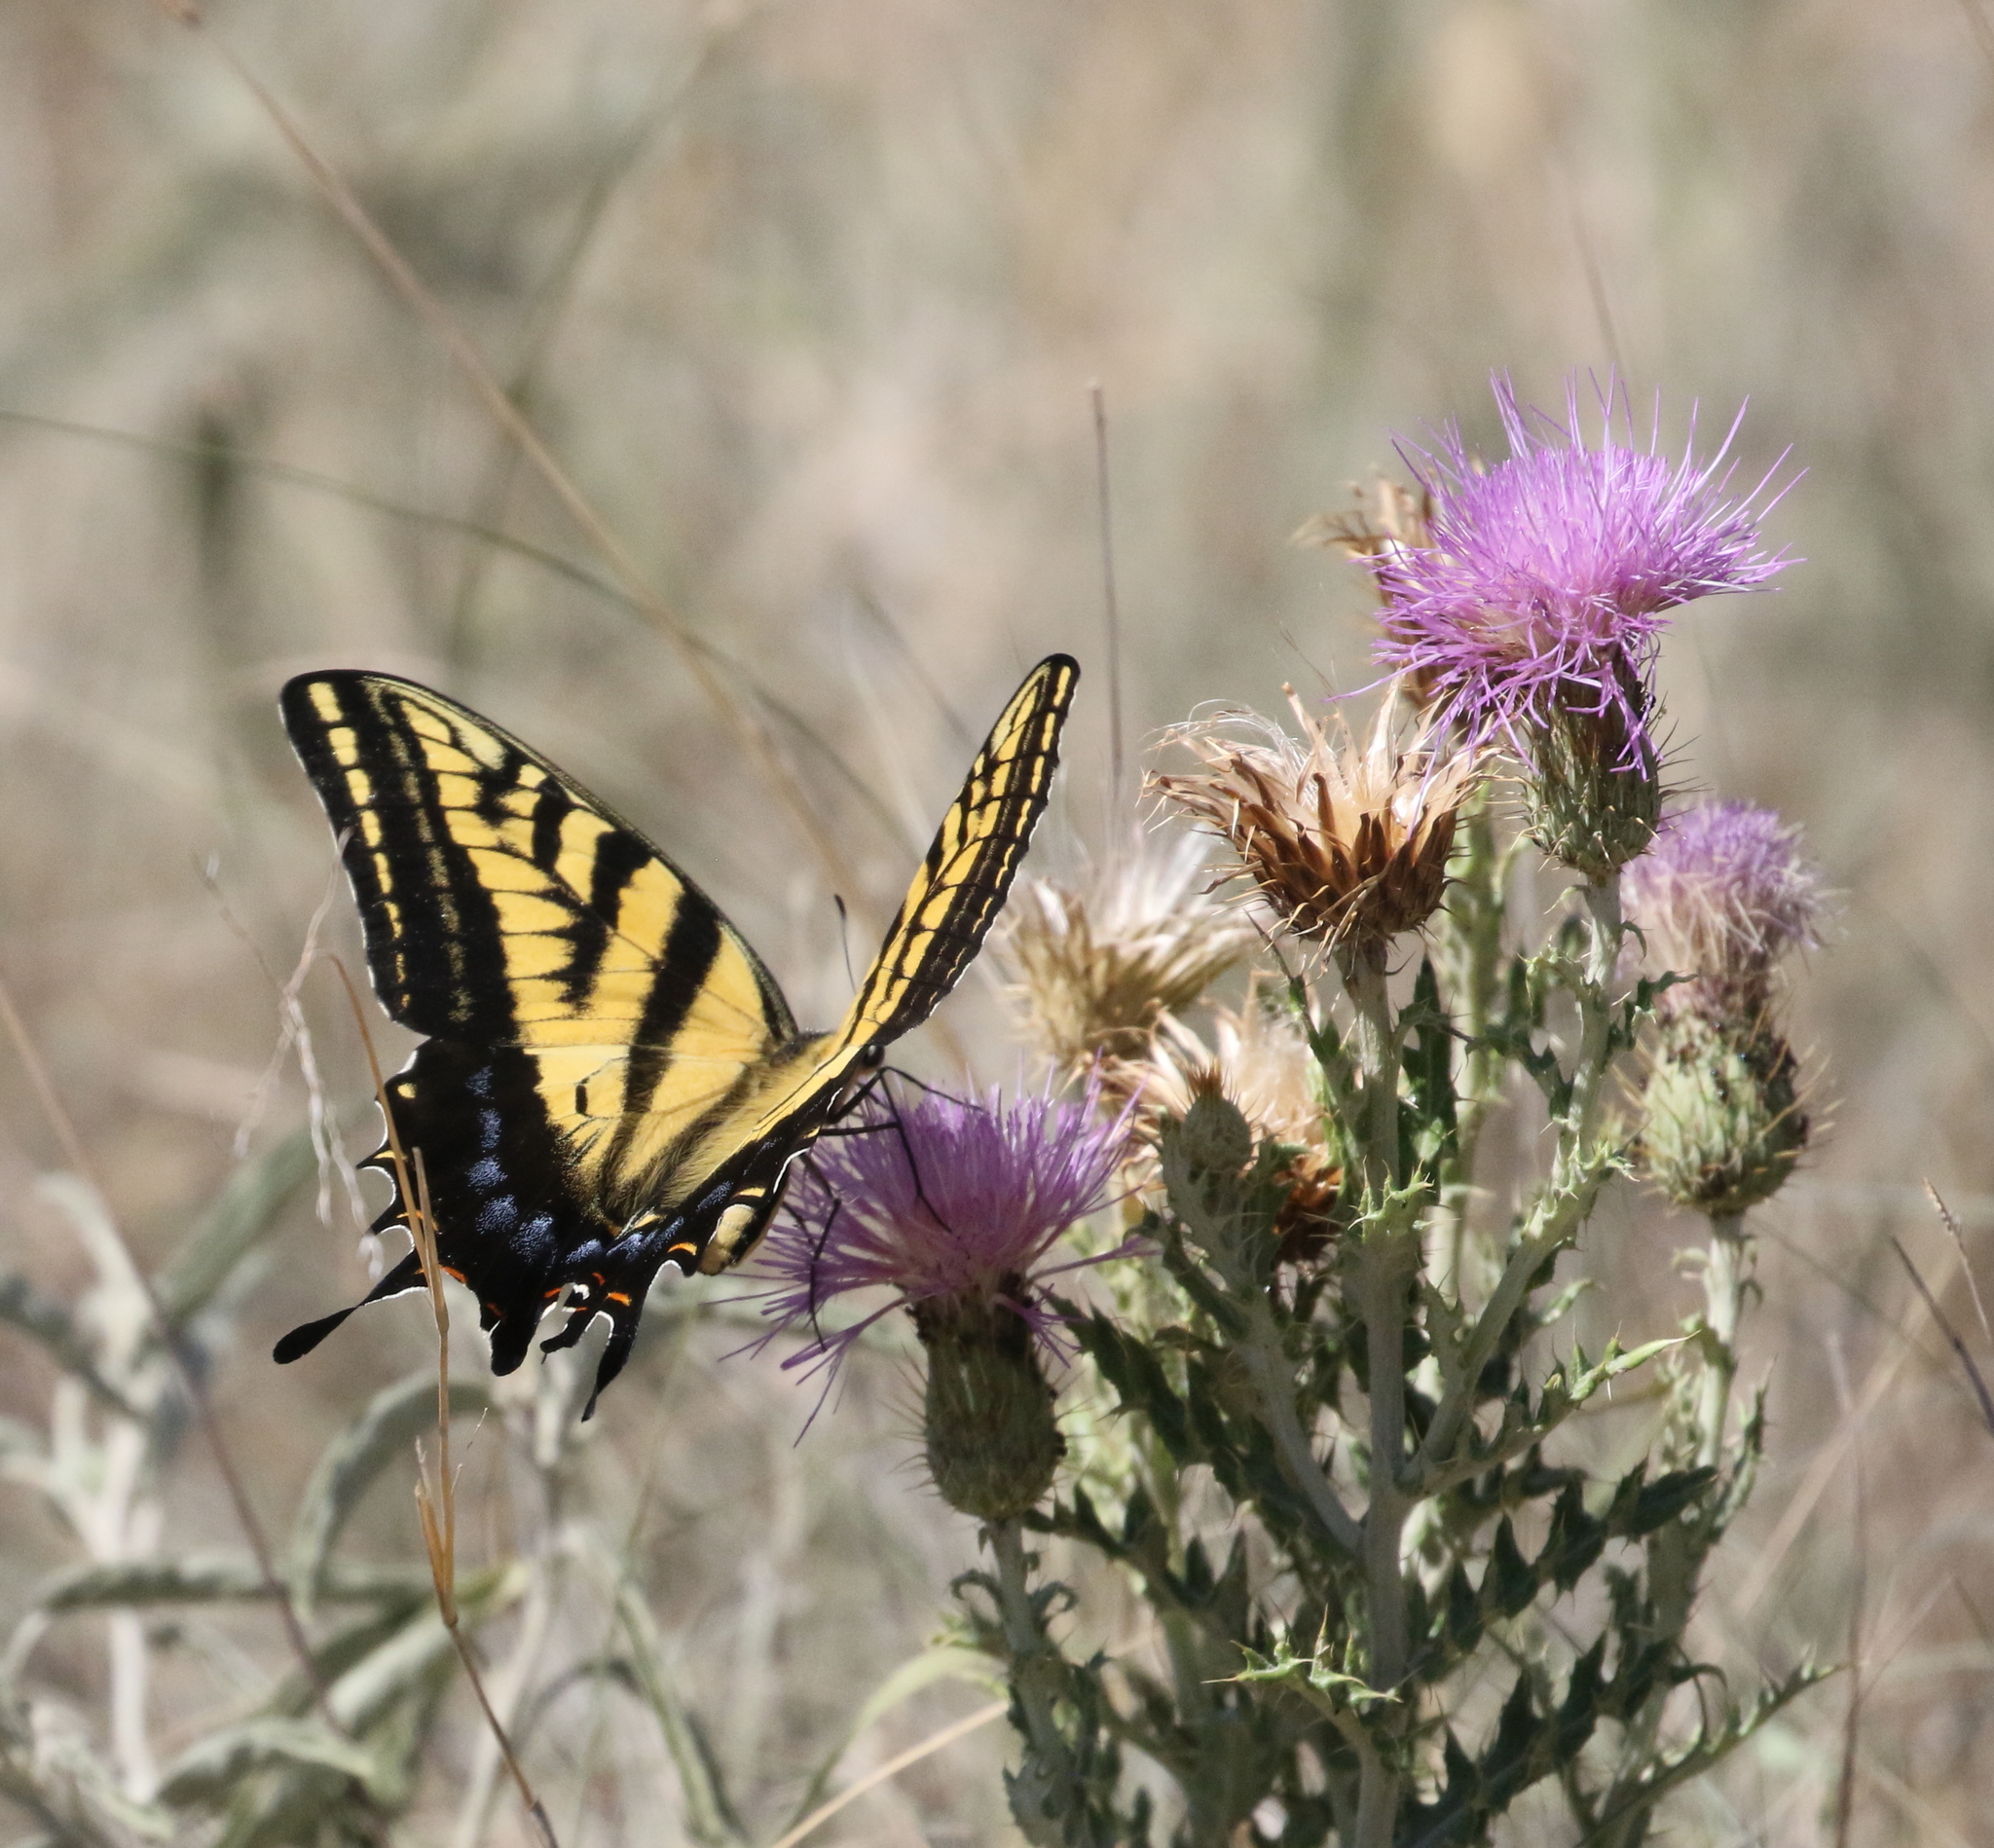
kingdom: Animalia
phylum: Arthropoda
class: Insecta
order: Lepidoptera
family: Papilionidae
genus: Papilio
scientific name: Papilio multicaudata
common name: Two-tailed tiger swallowtail
